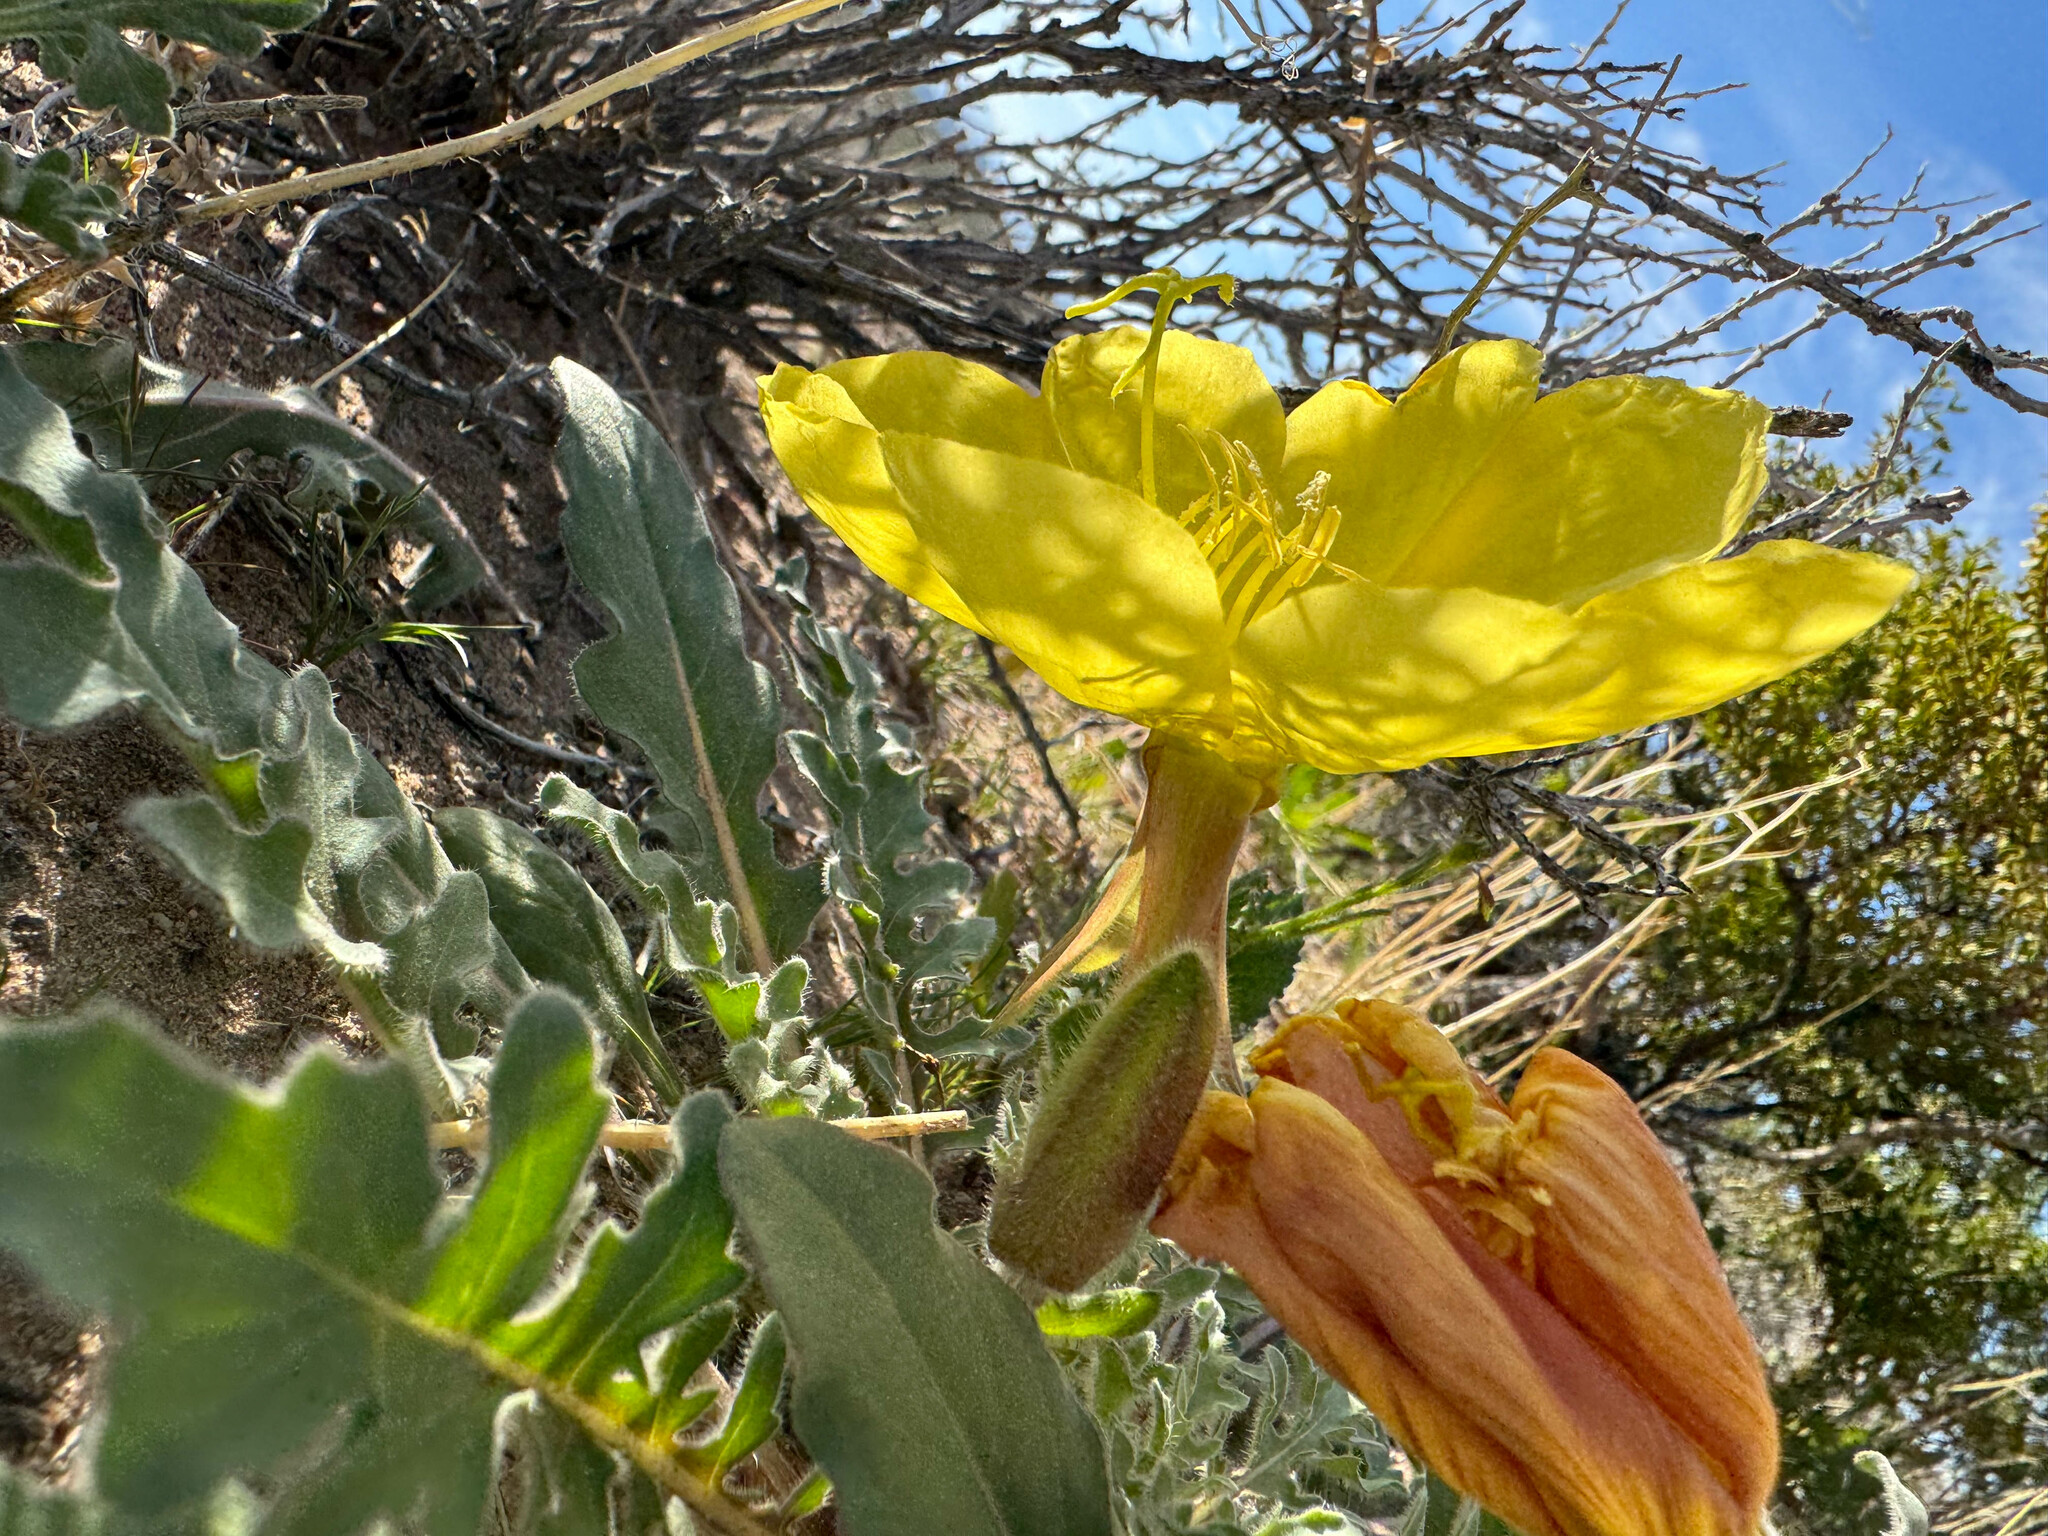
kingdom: Plantae
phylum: Tracheophyta
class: Magnoliopsida
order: Myrtales
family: Onagraceae
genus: Oenothera
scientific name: Oenothera primiveris
